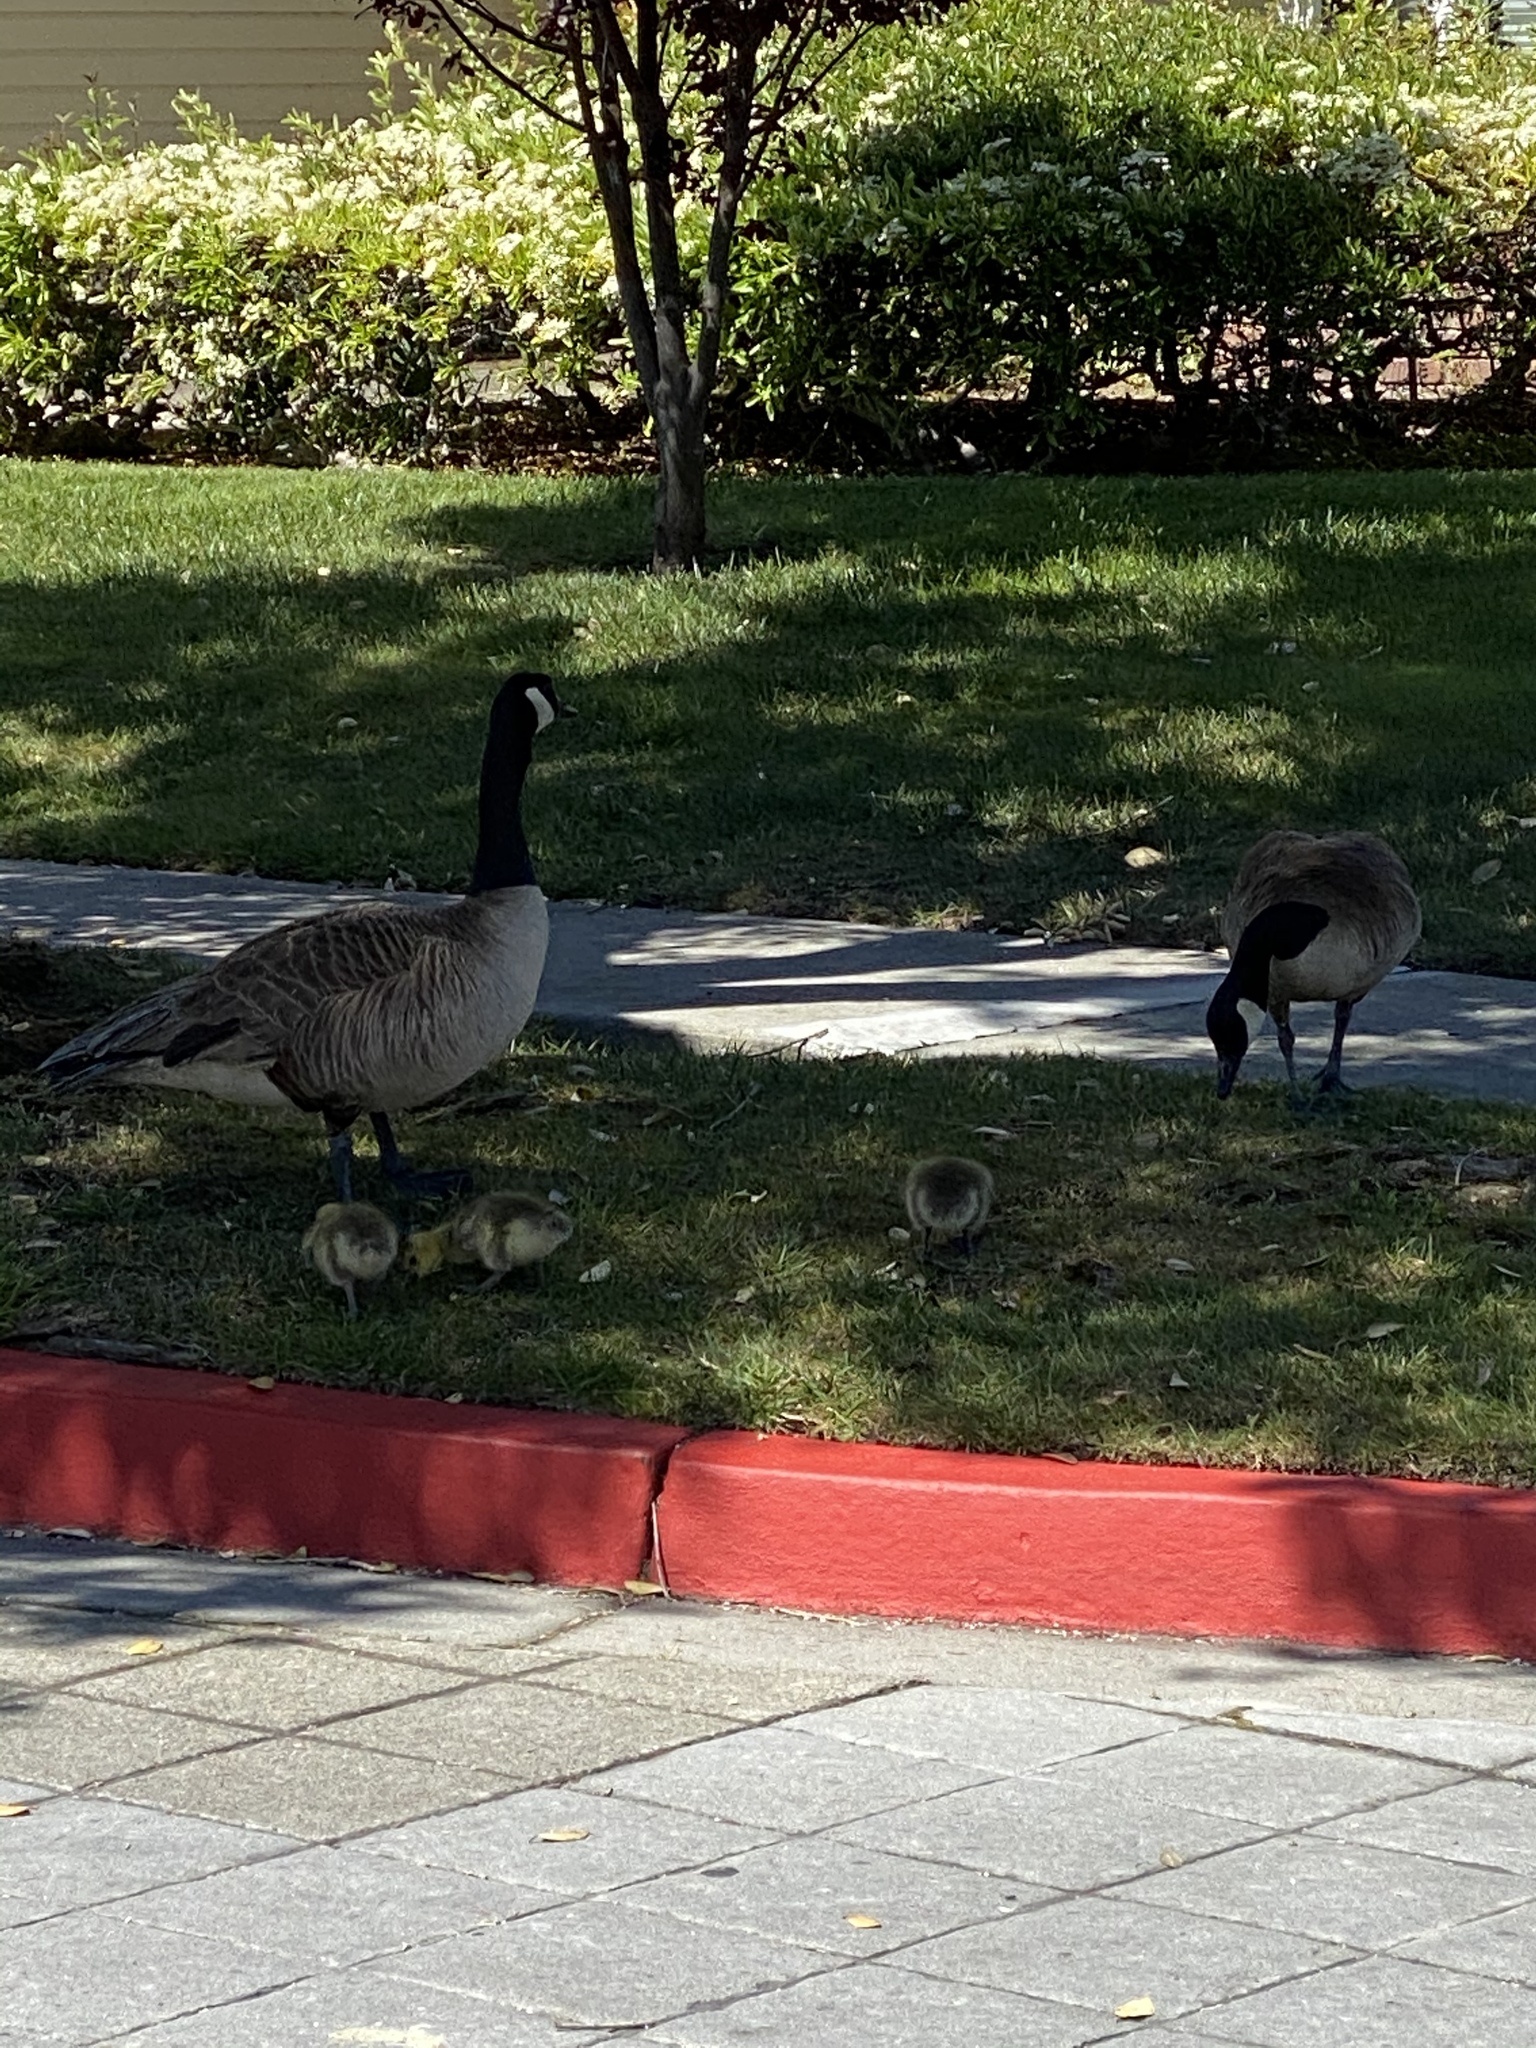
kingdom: Animalia
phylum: Chordata
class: Aves
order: Anseriformes
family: Anatidae
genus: Branta
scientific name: Branta canadensis
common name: Canada goose
